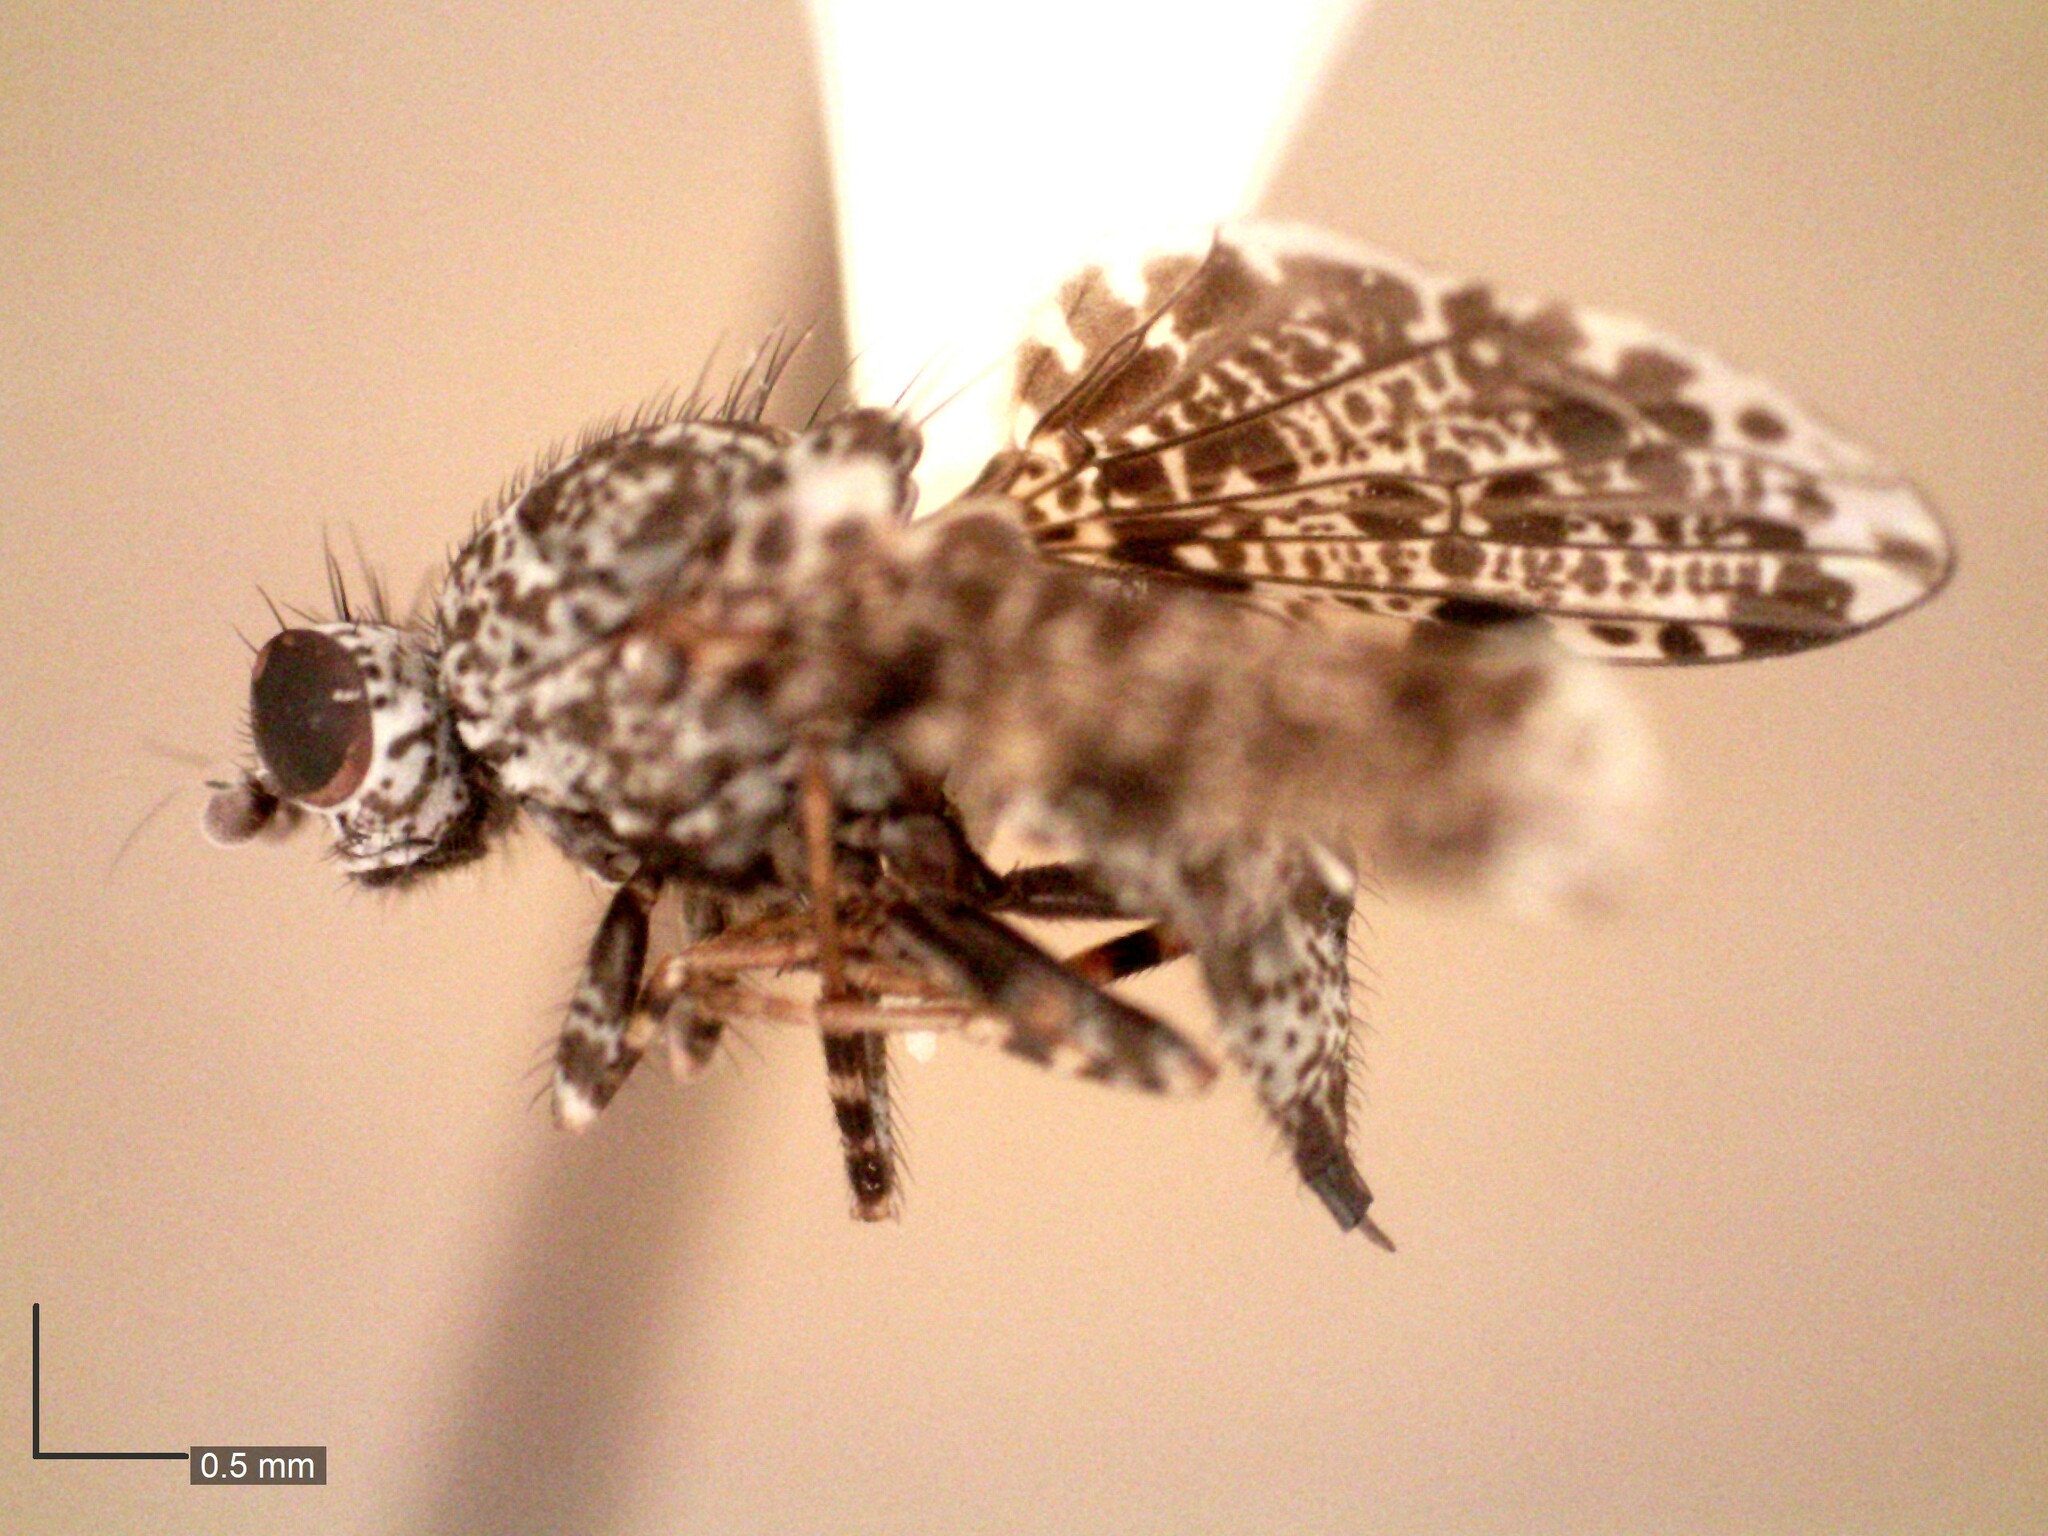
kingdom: Animalia
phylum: Arthropoda
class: Insecta
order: Diptera
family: Ulidiidae
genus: Callopistromyia
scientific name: Callopistromyia annulipes
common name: Peacock fly
